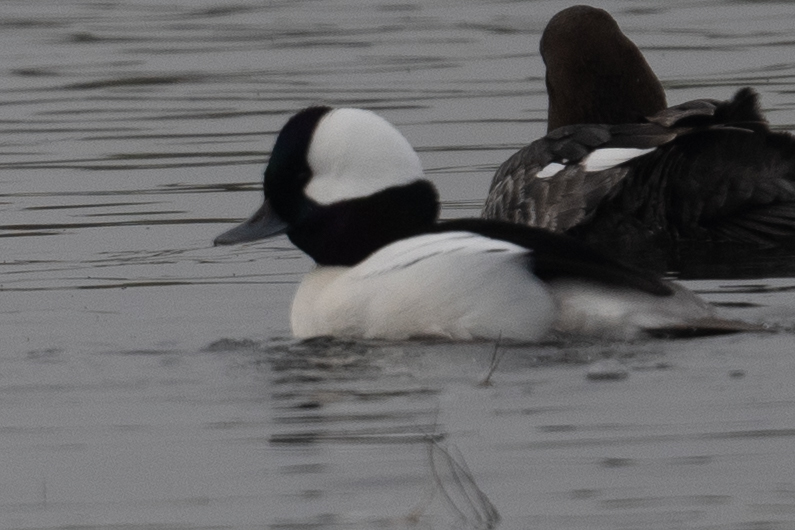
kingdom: Animalia
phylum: Chordata
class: Aves
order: Anseriformes
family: Anatidae
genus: Bucephala
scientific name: Bucephala albeola
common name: Bufflehead
